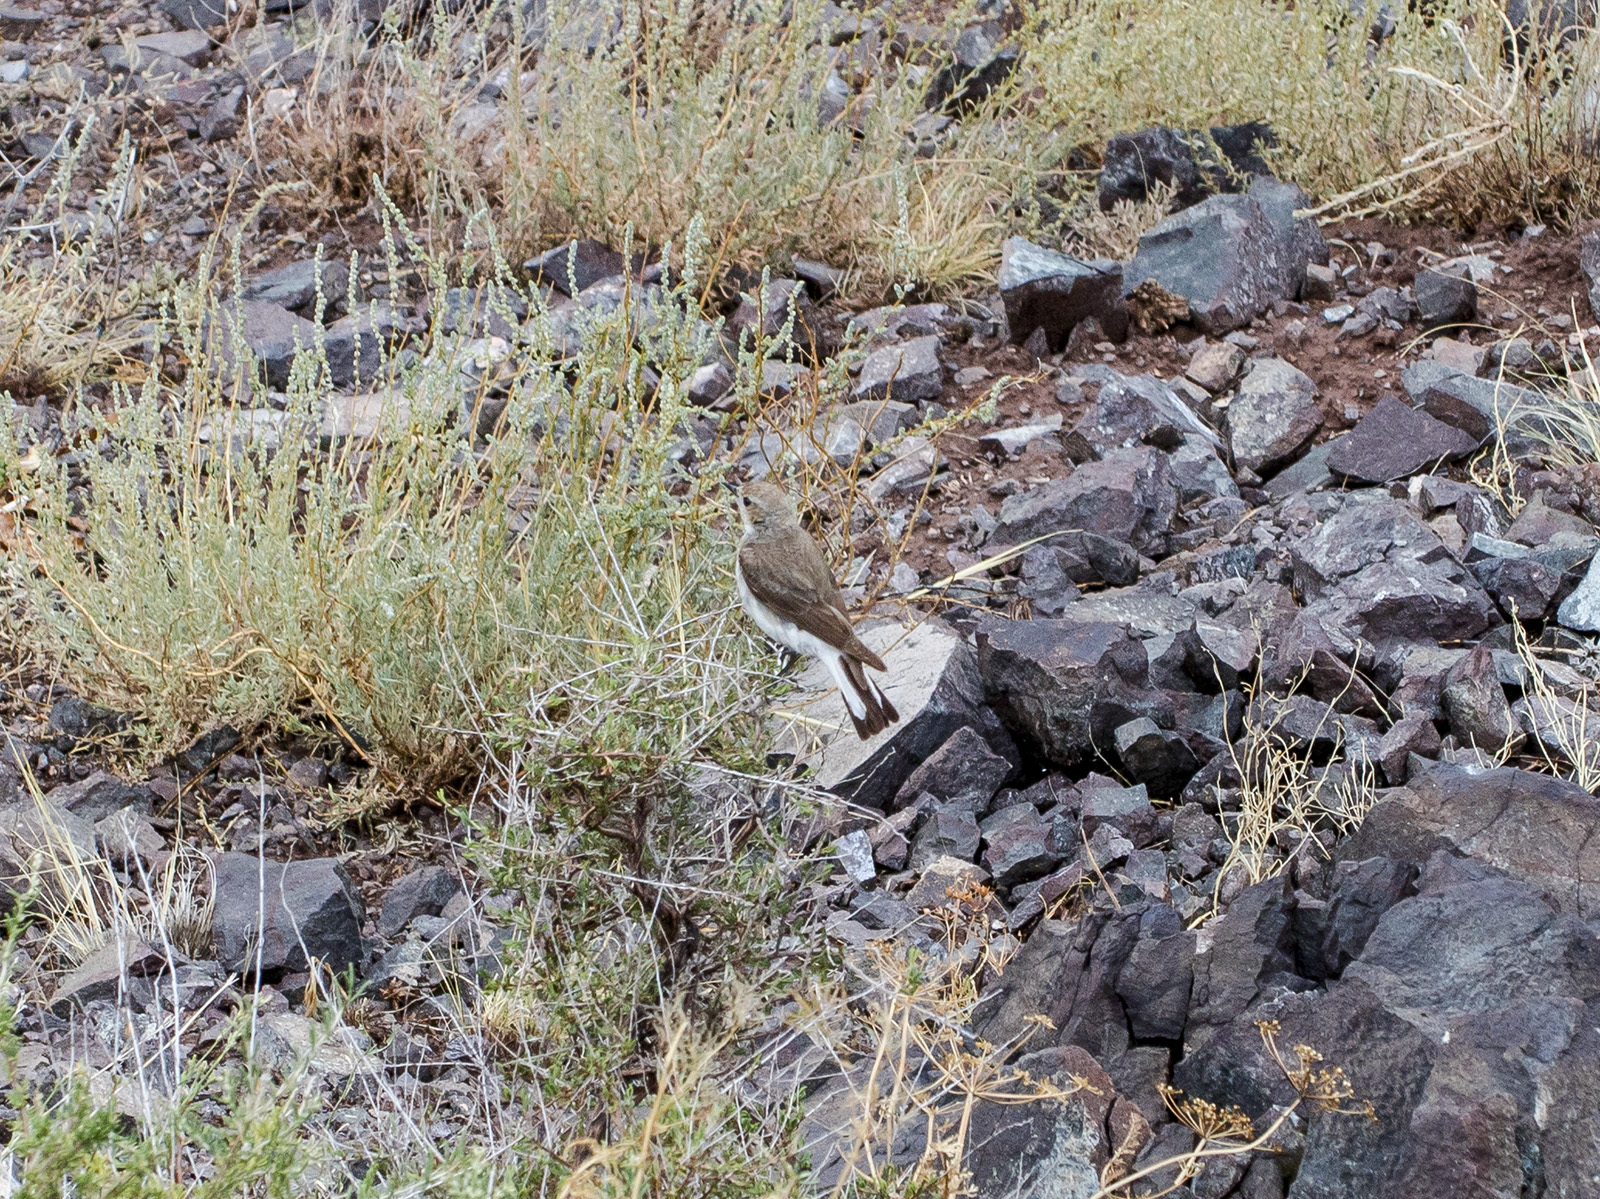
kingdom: Animalia
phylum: Chordata
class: Aves
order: Passeriformes
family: Muscicapidae
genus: Oenanthe
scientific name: Oenanthe pleschanka
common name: Pied wheatear
